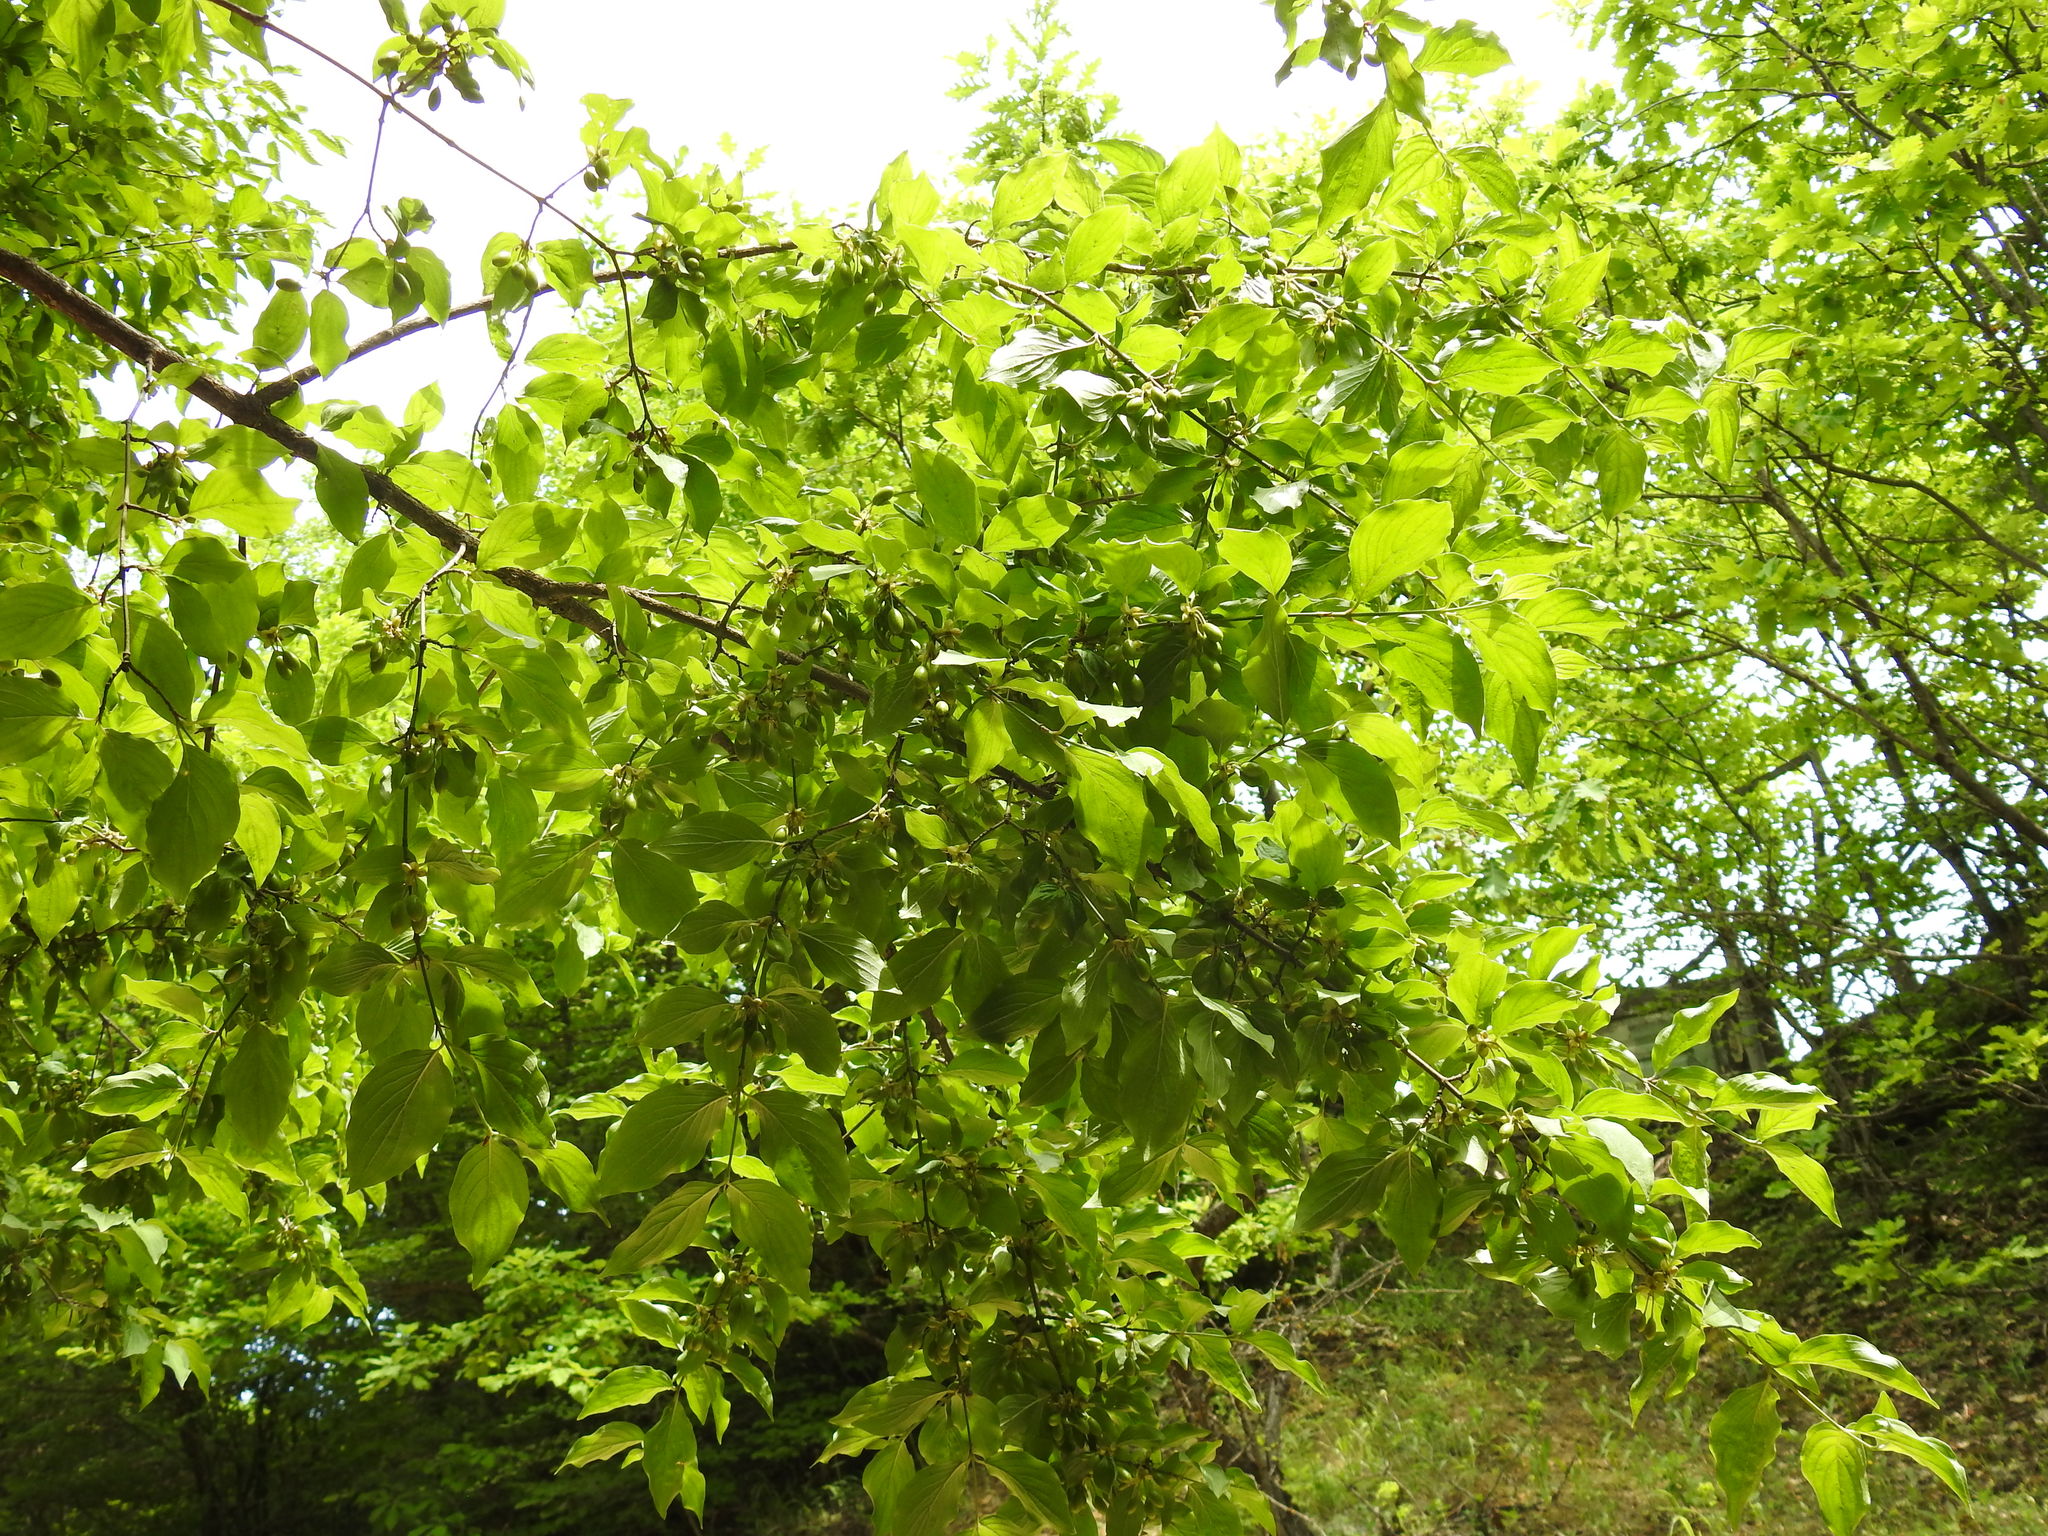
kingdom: Plantae
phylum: Tracheophyta
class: Magnoliopsida
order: Cornales
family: Cornaceae
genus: Cornus
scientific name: Cornus mas
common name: Cornelian-cherry
